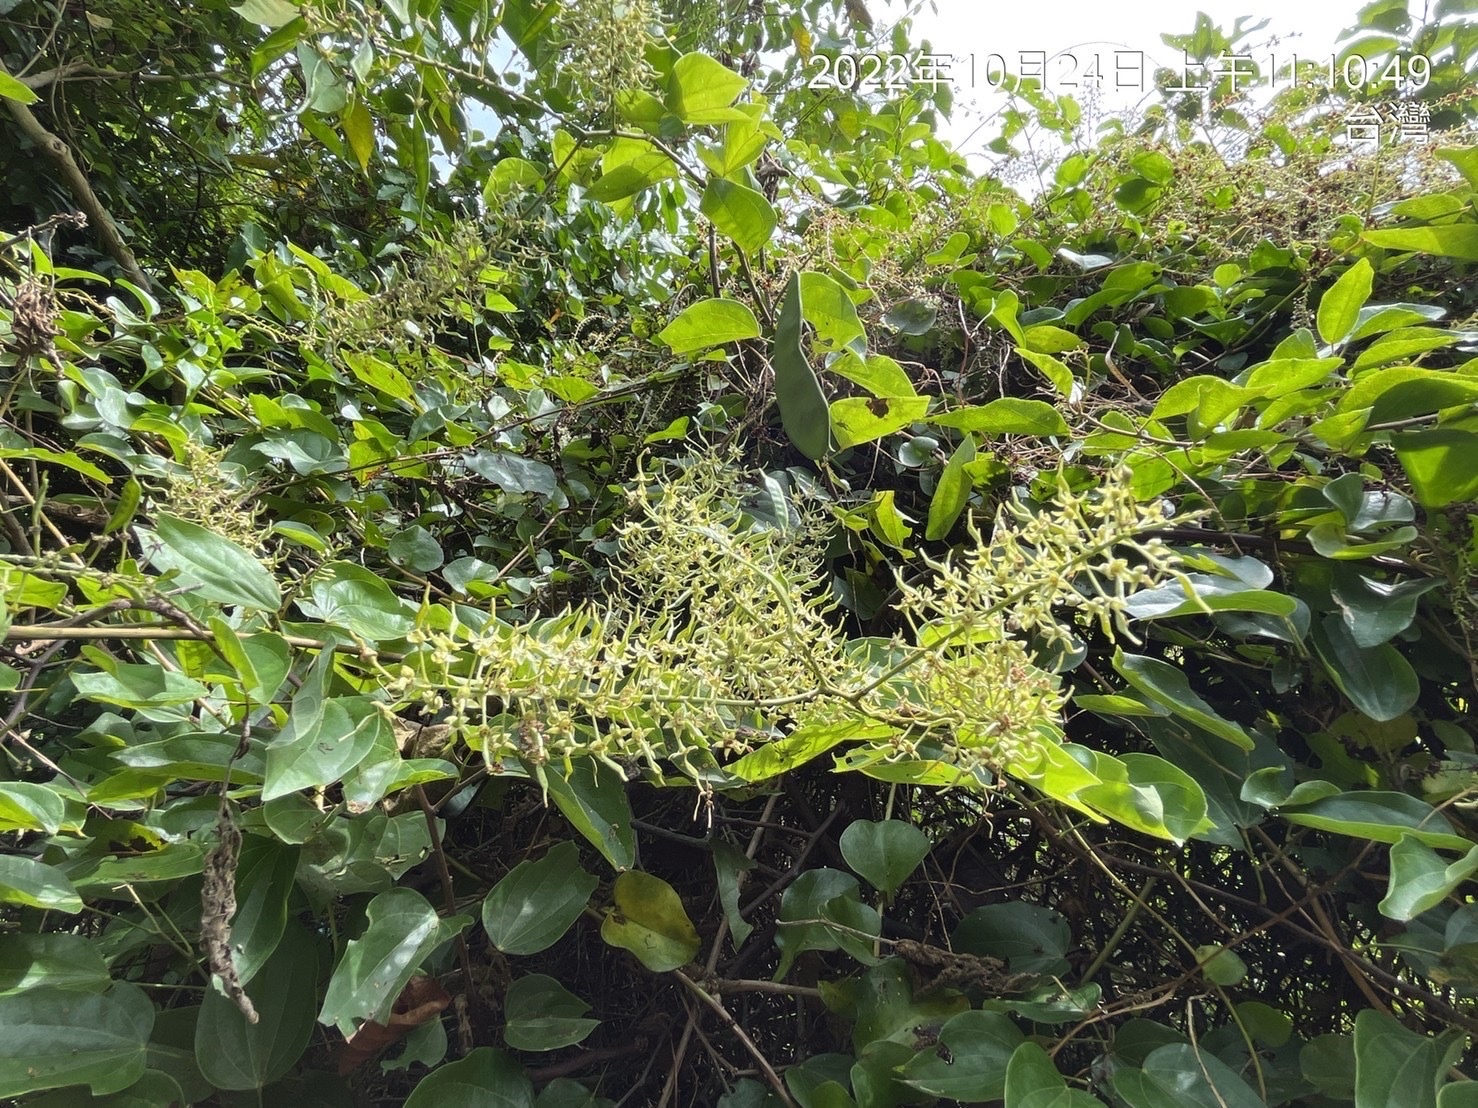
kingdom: Plantae
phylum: Tracheophyta
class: Magnoliopsida
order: Fabales
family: Fabaceae
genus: Phanera
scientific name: Phanera championii
